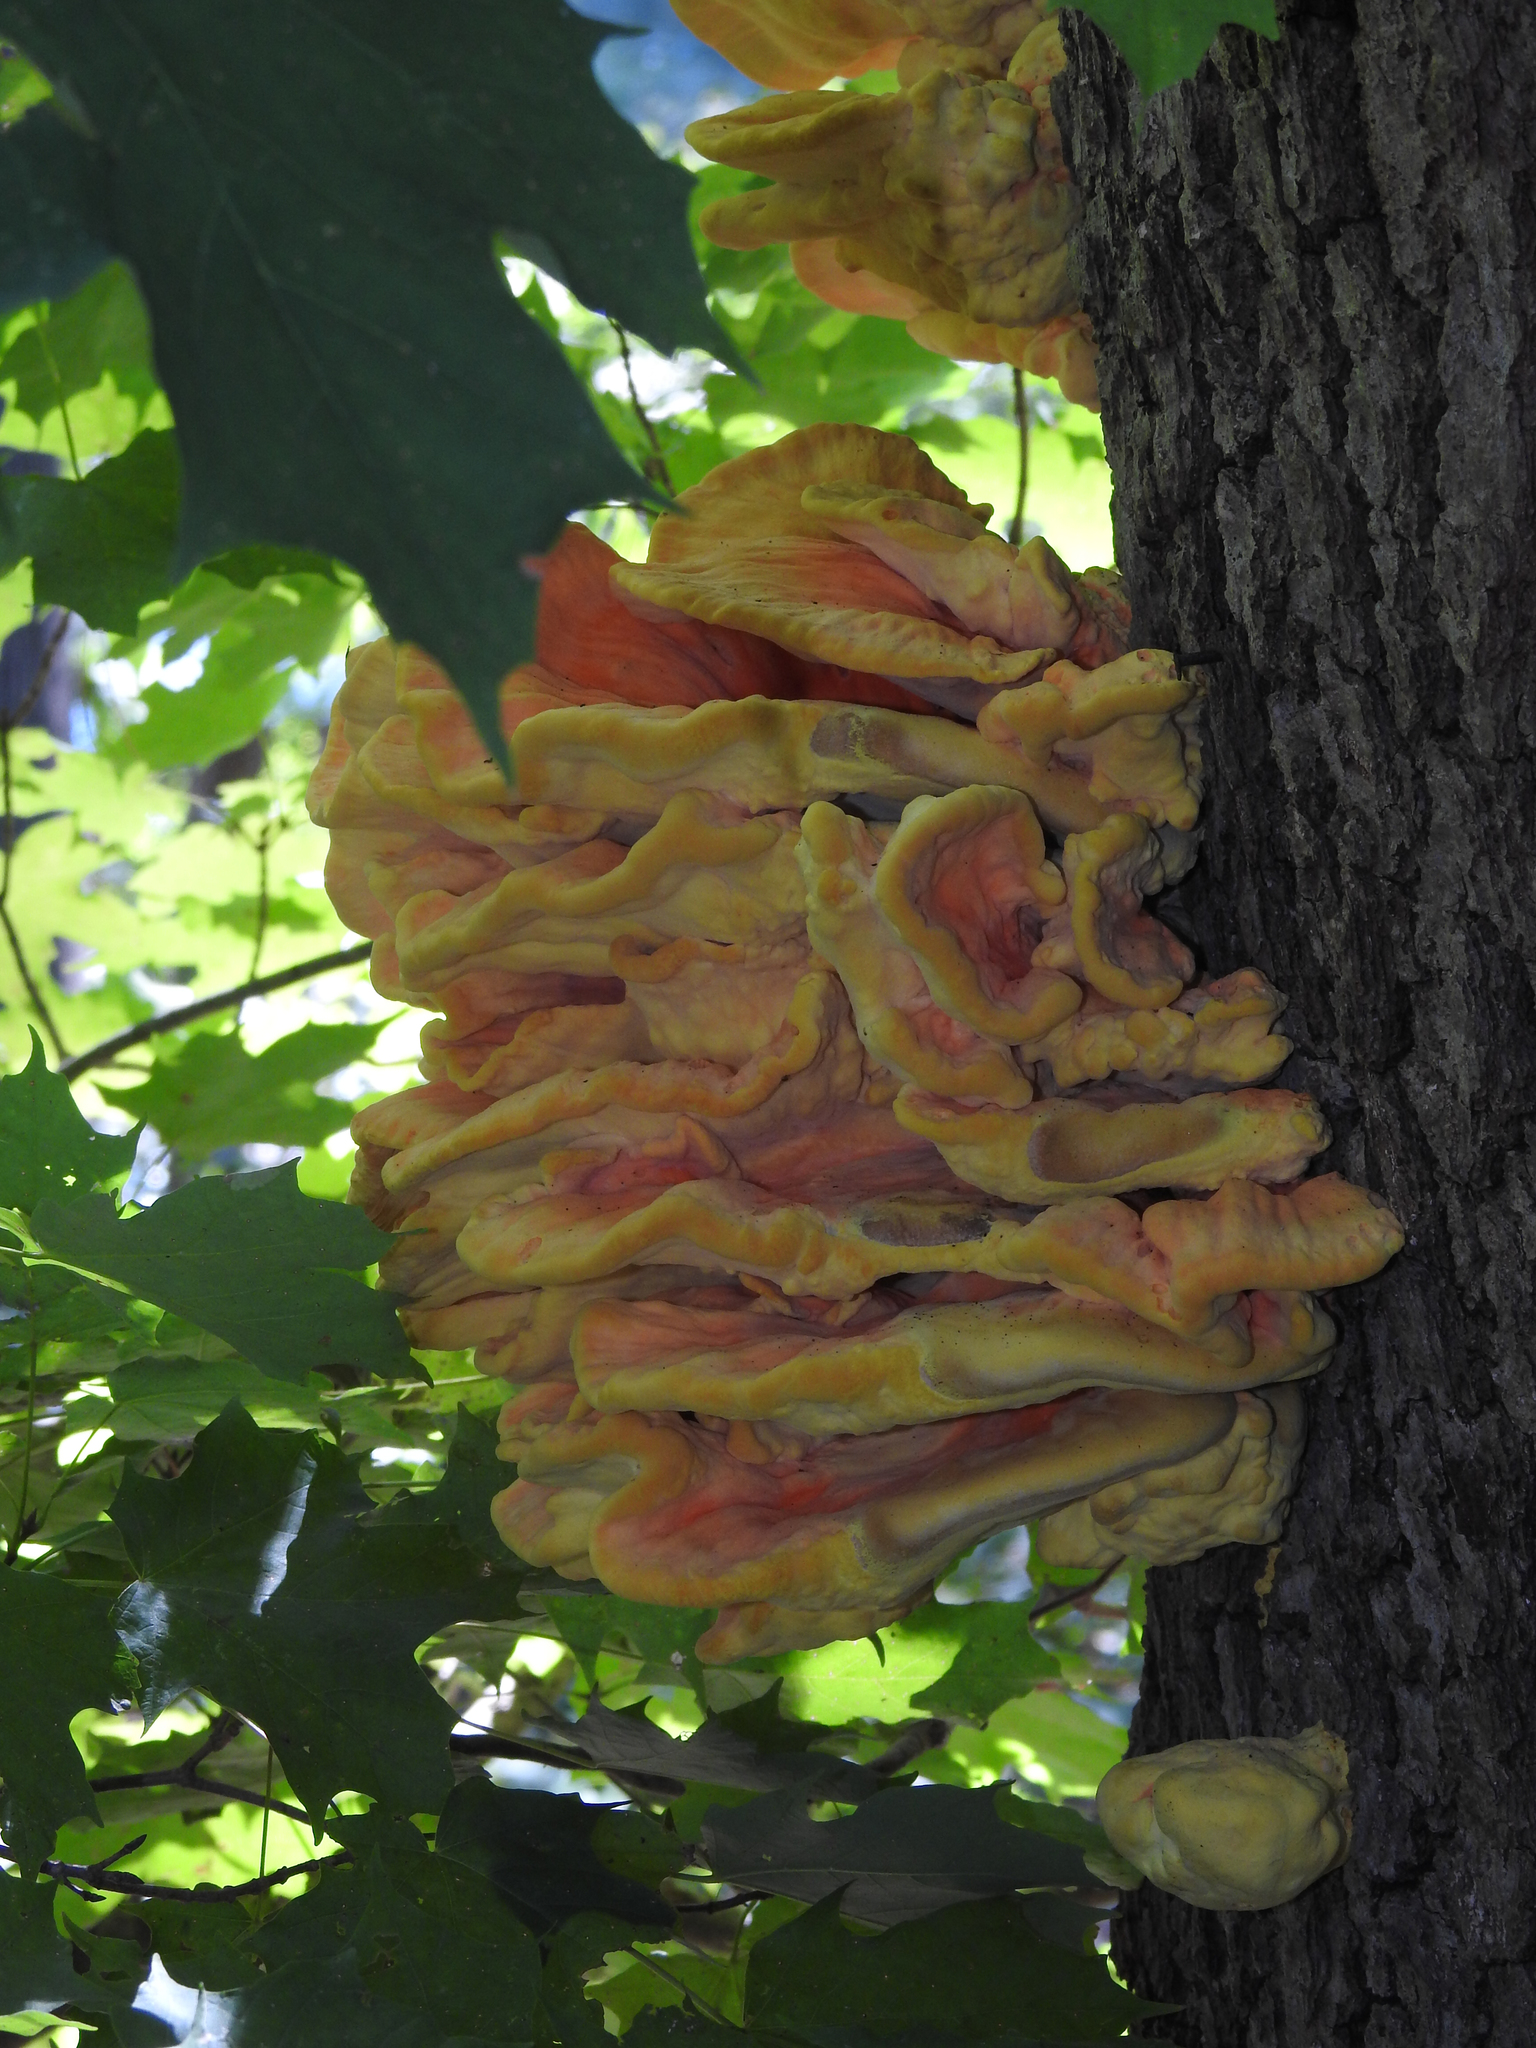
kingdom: Fungi
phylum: Basidiomycota
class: Agaricomycetes
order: Polyporales
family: Laetiporaceae
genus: Laetiporus
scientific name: Laetiporus sulphureus
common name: Chicken of the woods
